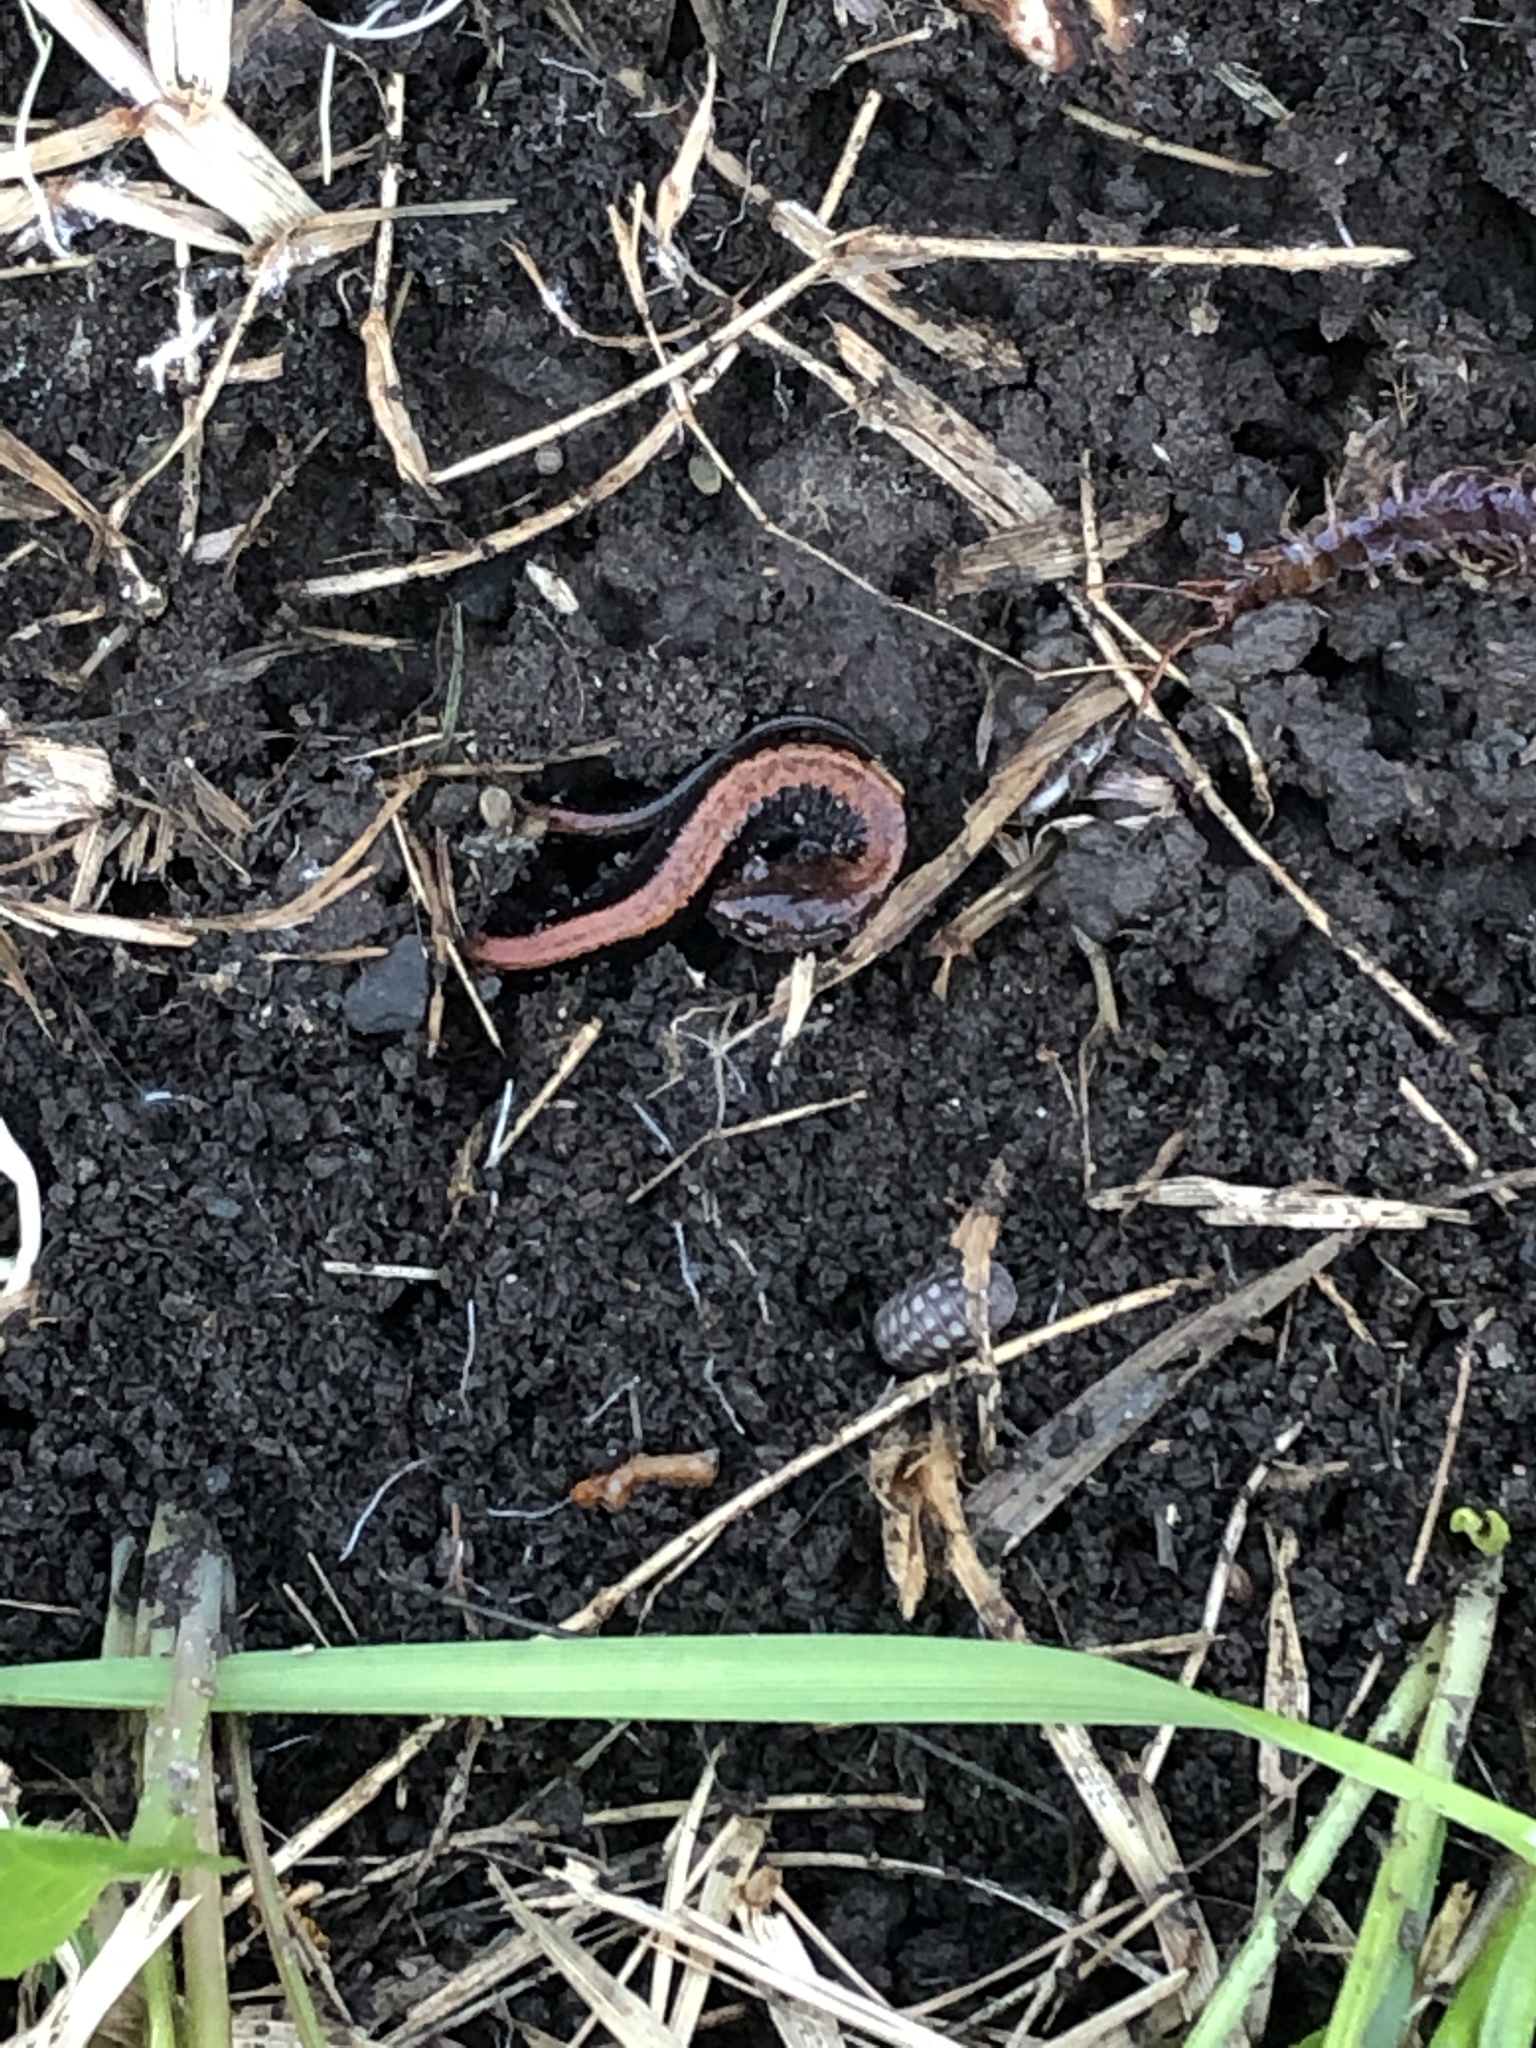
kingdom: Animalia
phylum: Chordata
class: Amphibia
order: Caudata
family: Plethodontidae
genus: Plethodon
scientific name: Plethodon cinereus
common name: Redback salamander
